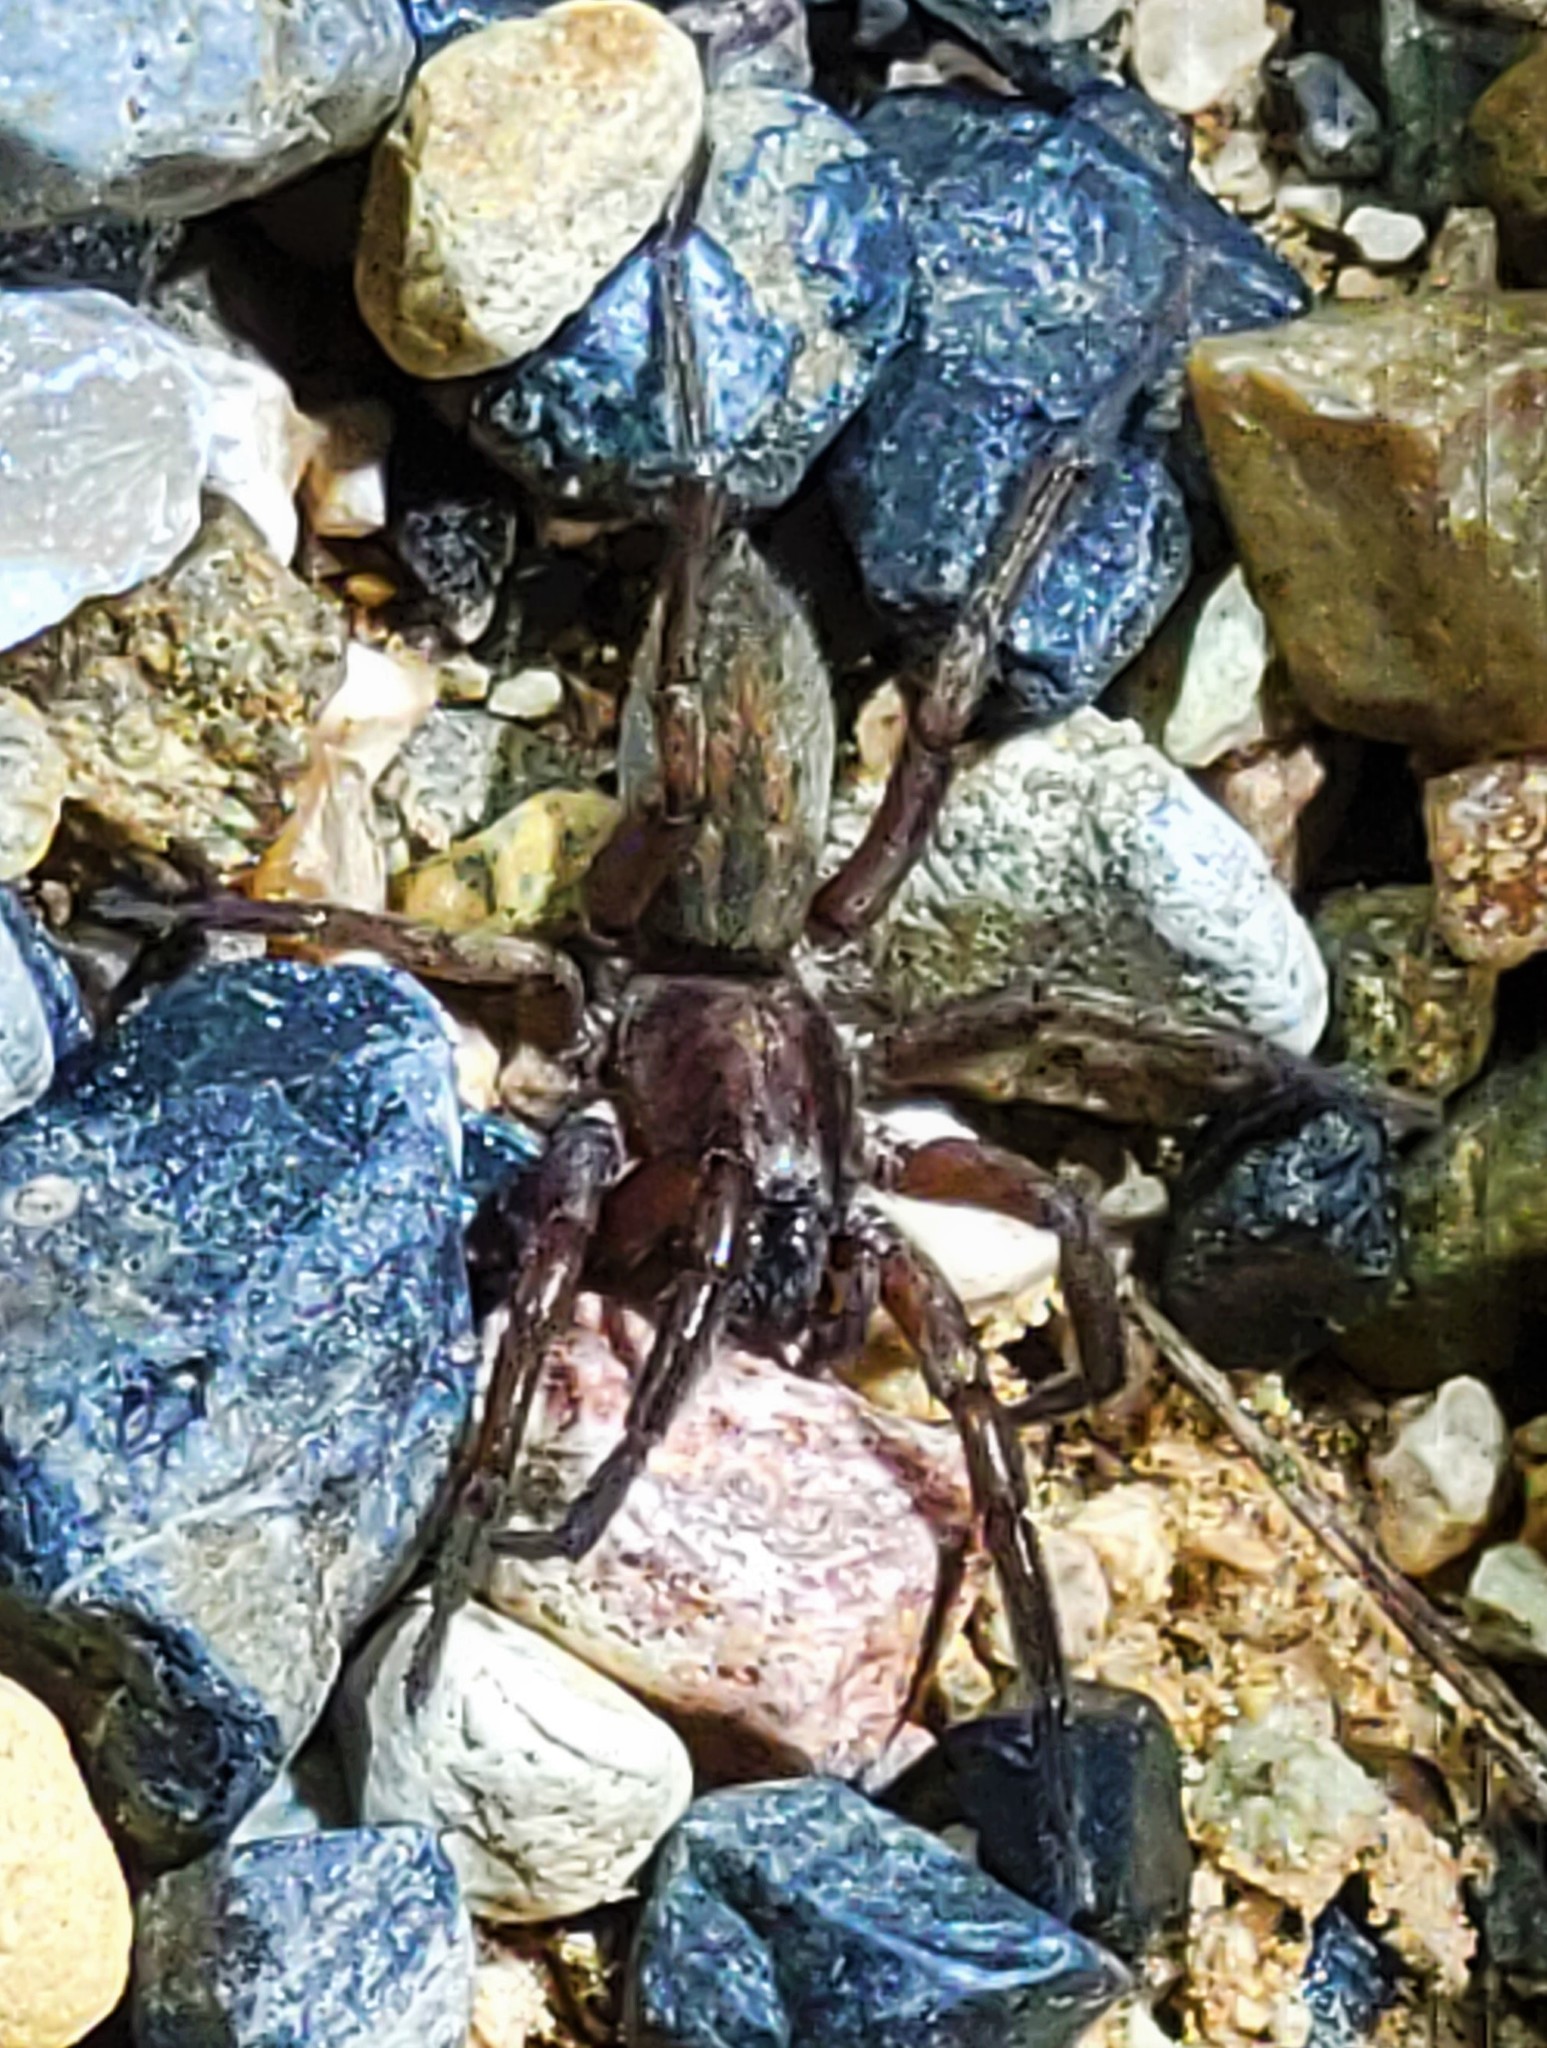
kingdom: Animalia
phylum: Arthropoda
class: Arachnida
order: Araneae
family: Miturgidae
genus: Teminius
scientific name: Teminius affinis
